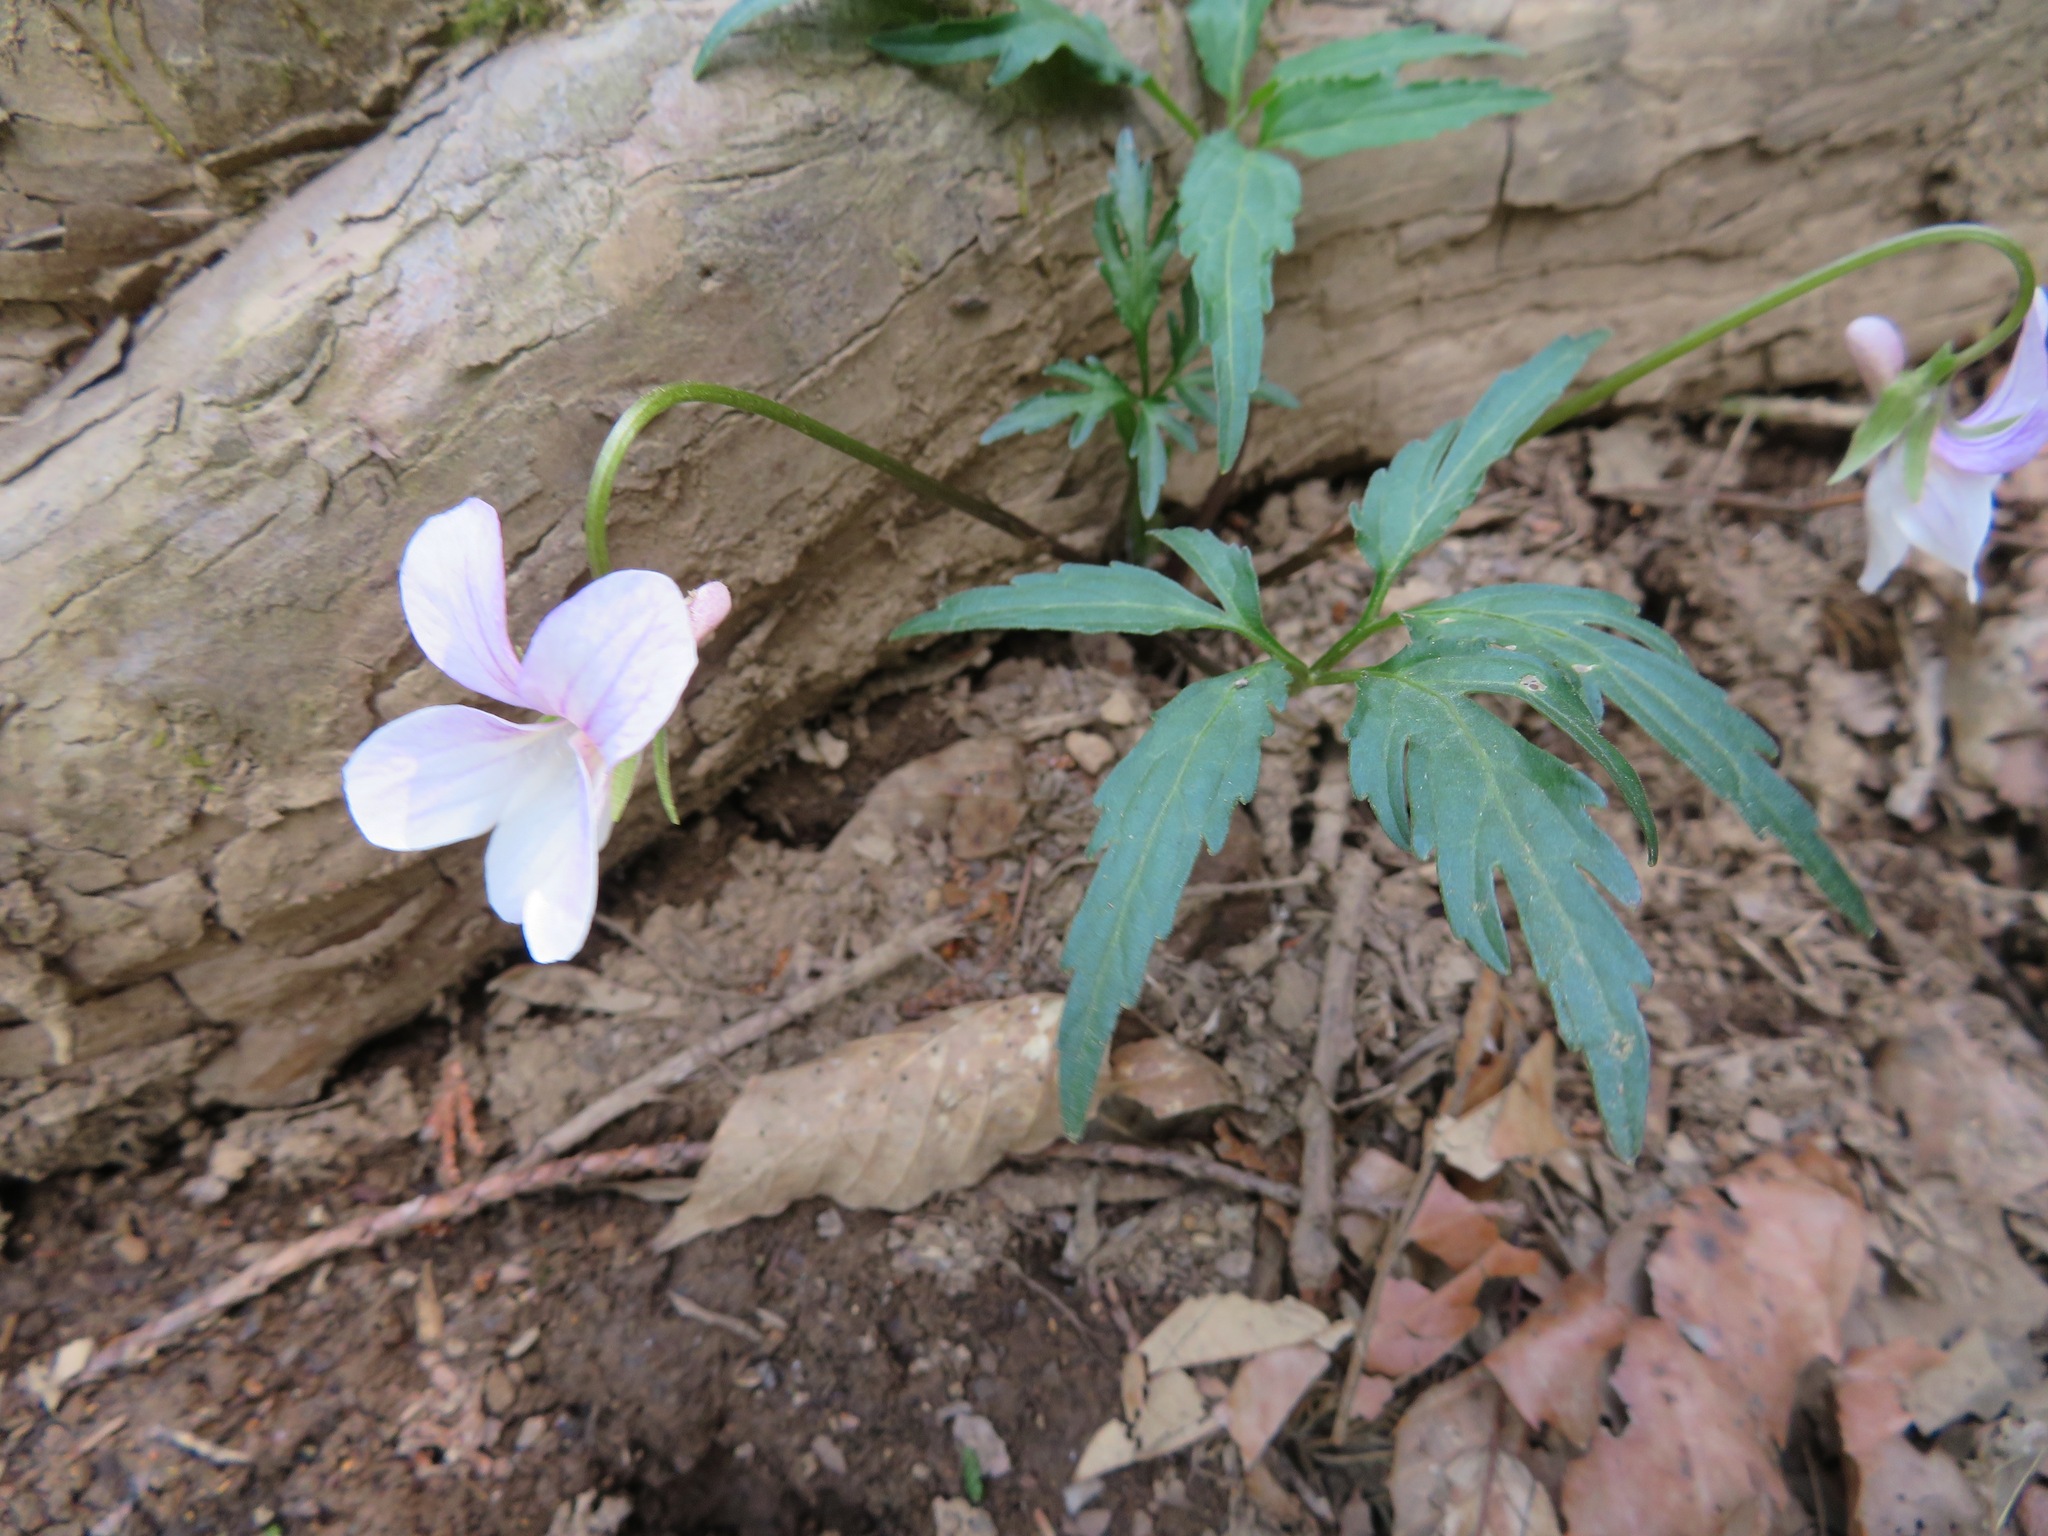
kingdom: Plantae
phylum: Tracheophyta
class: Magnoliopsida
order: Malpighiales
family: Violaceae
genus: Viola
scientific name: Viola albida
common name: Korean violet
